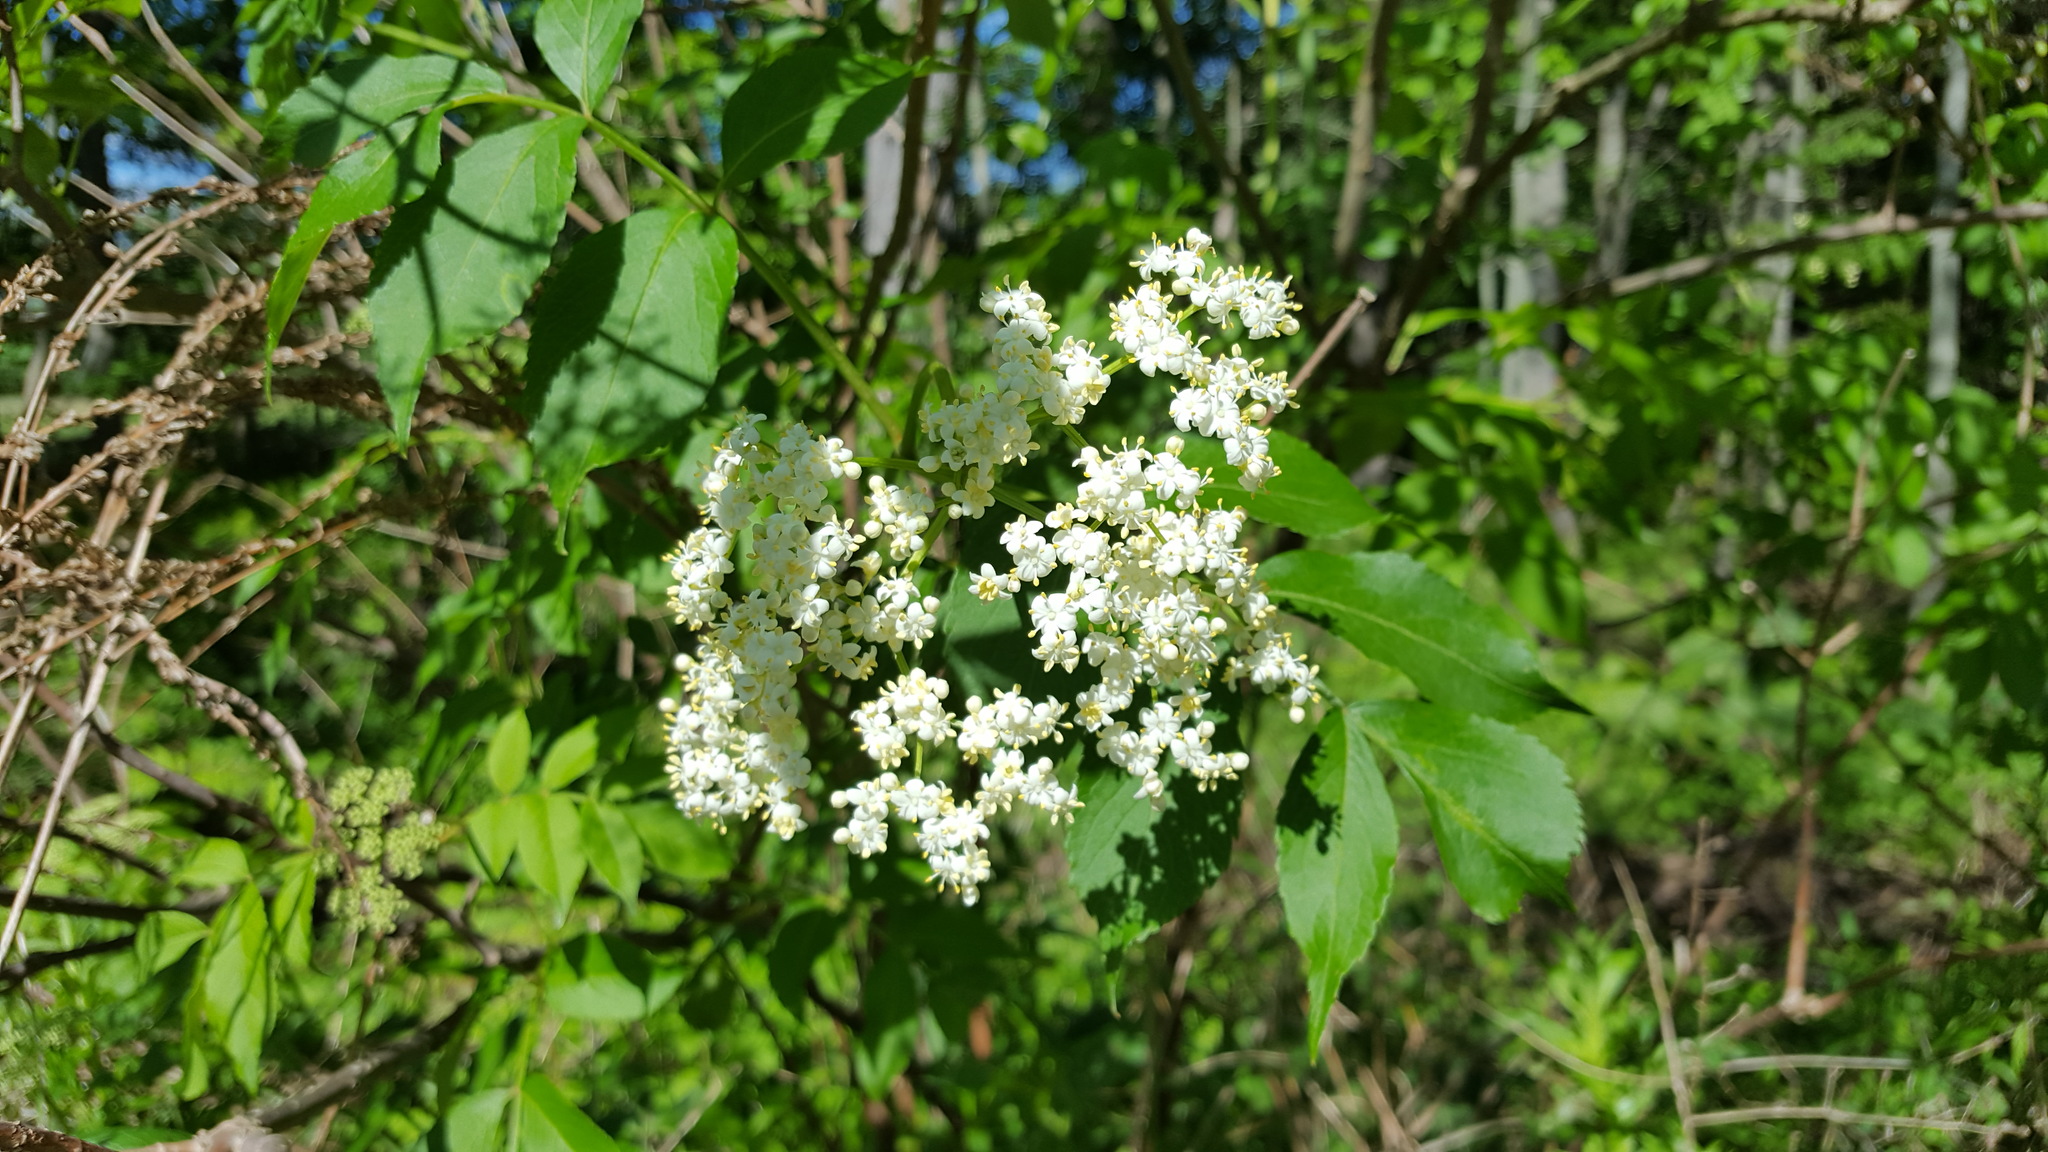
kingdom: Plantae
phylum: Tracheophyta
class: Magnoliopsida
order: Dipsacales
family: Viburnaceae
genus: Sambucus
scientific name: Sambucus canadensis
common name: American elder
